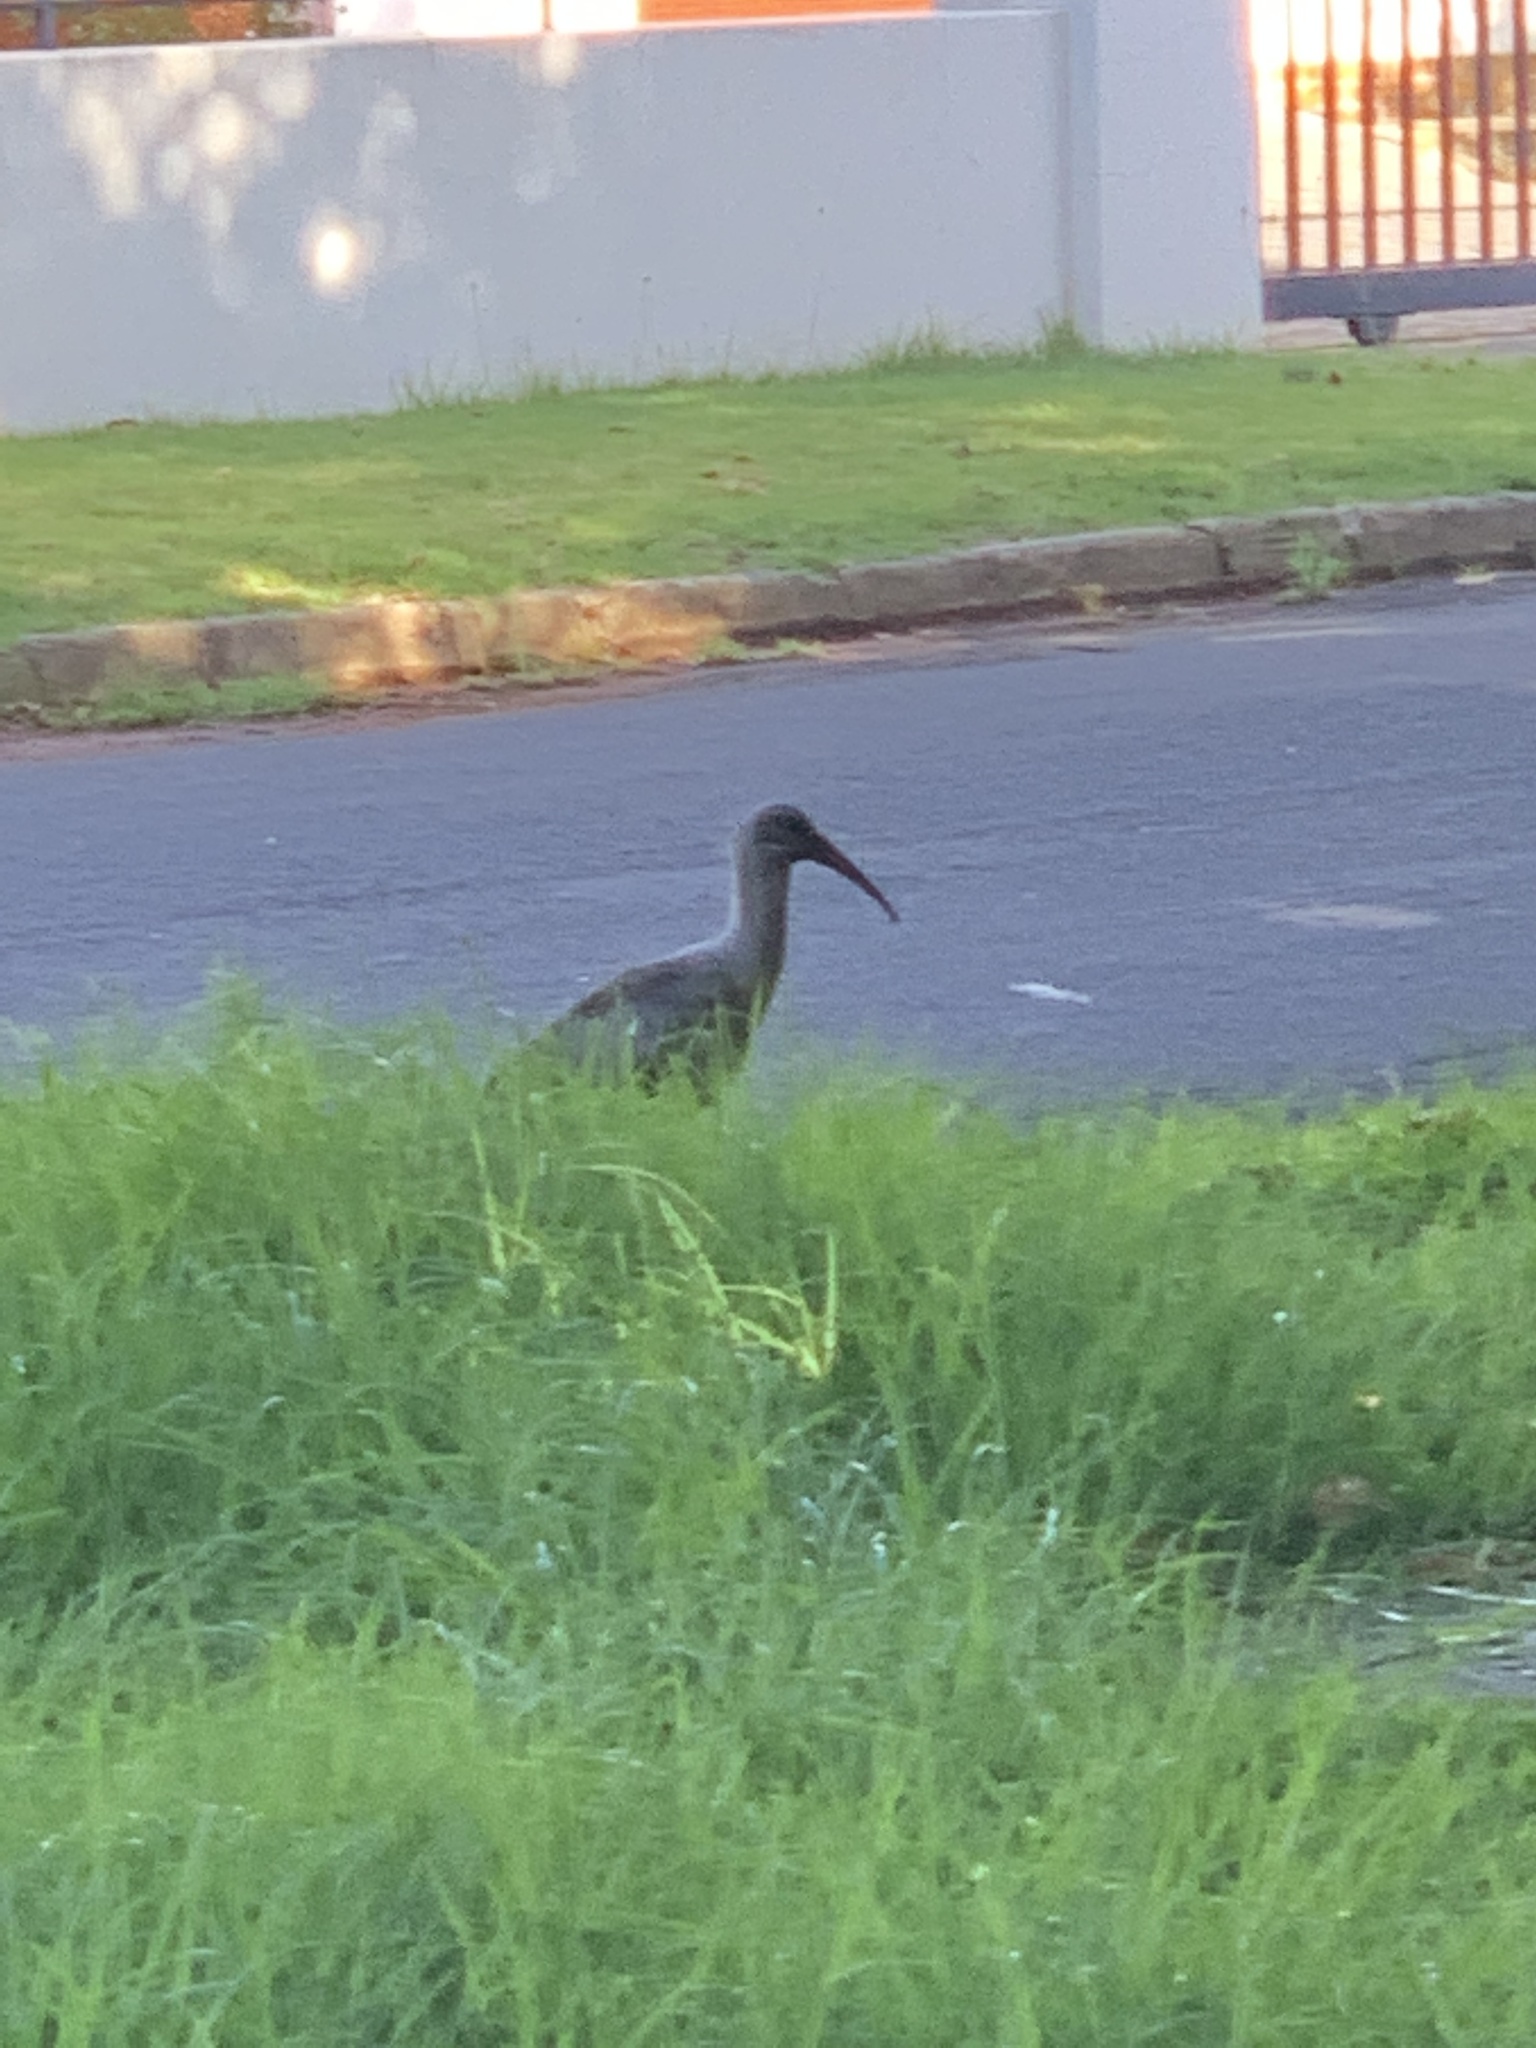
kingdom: Animalia
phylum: Chordata
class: Aves
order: Pelecaniformes
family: Threskiornithidae
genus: Bostrychia
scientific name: Bostrychia hagedash
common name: Hadada ibis
